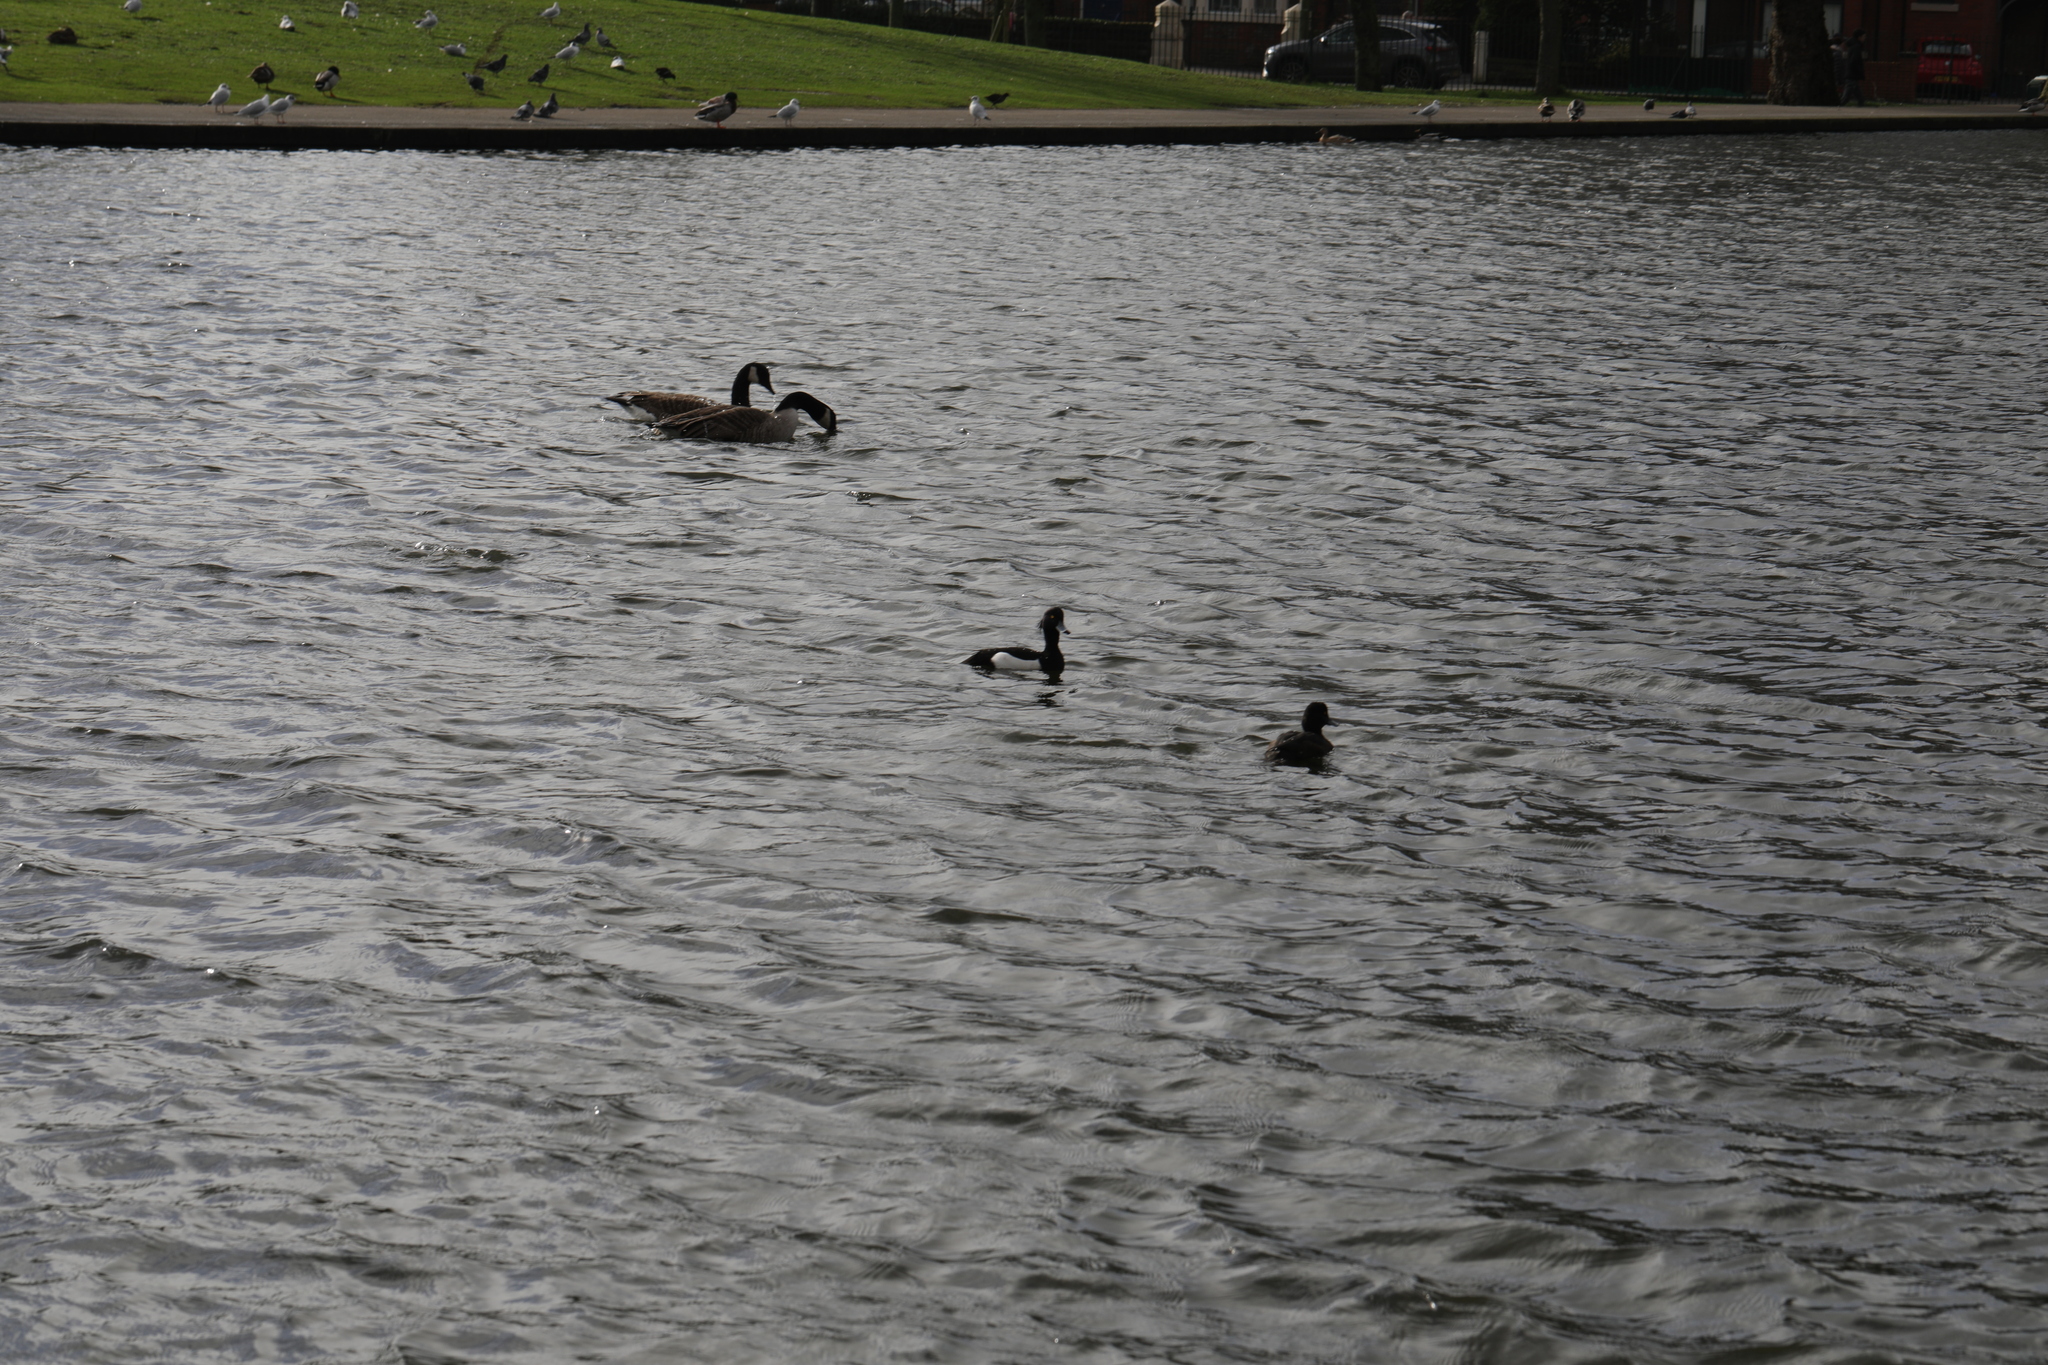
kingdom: Animalia
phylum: Chordata
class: Aves
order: Anseriformes
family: Anatidae
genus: Aythya
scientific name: Aythya fuligula
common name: Tufted duck
